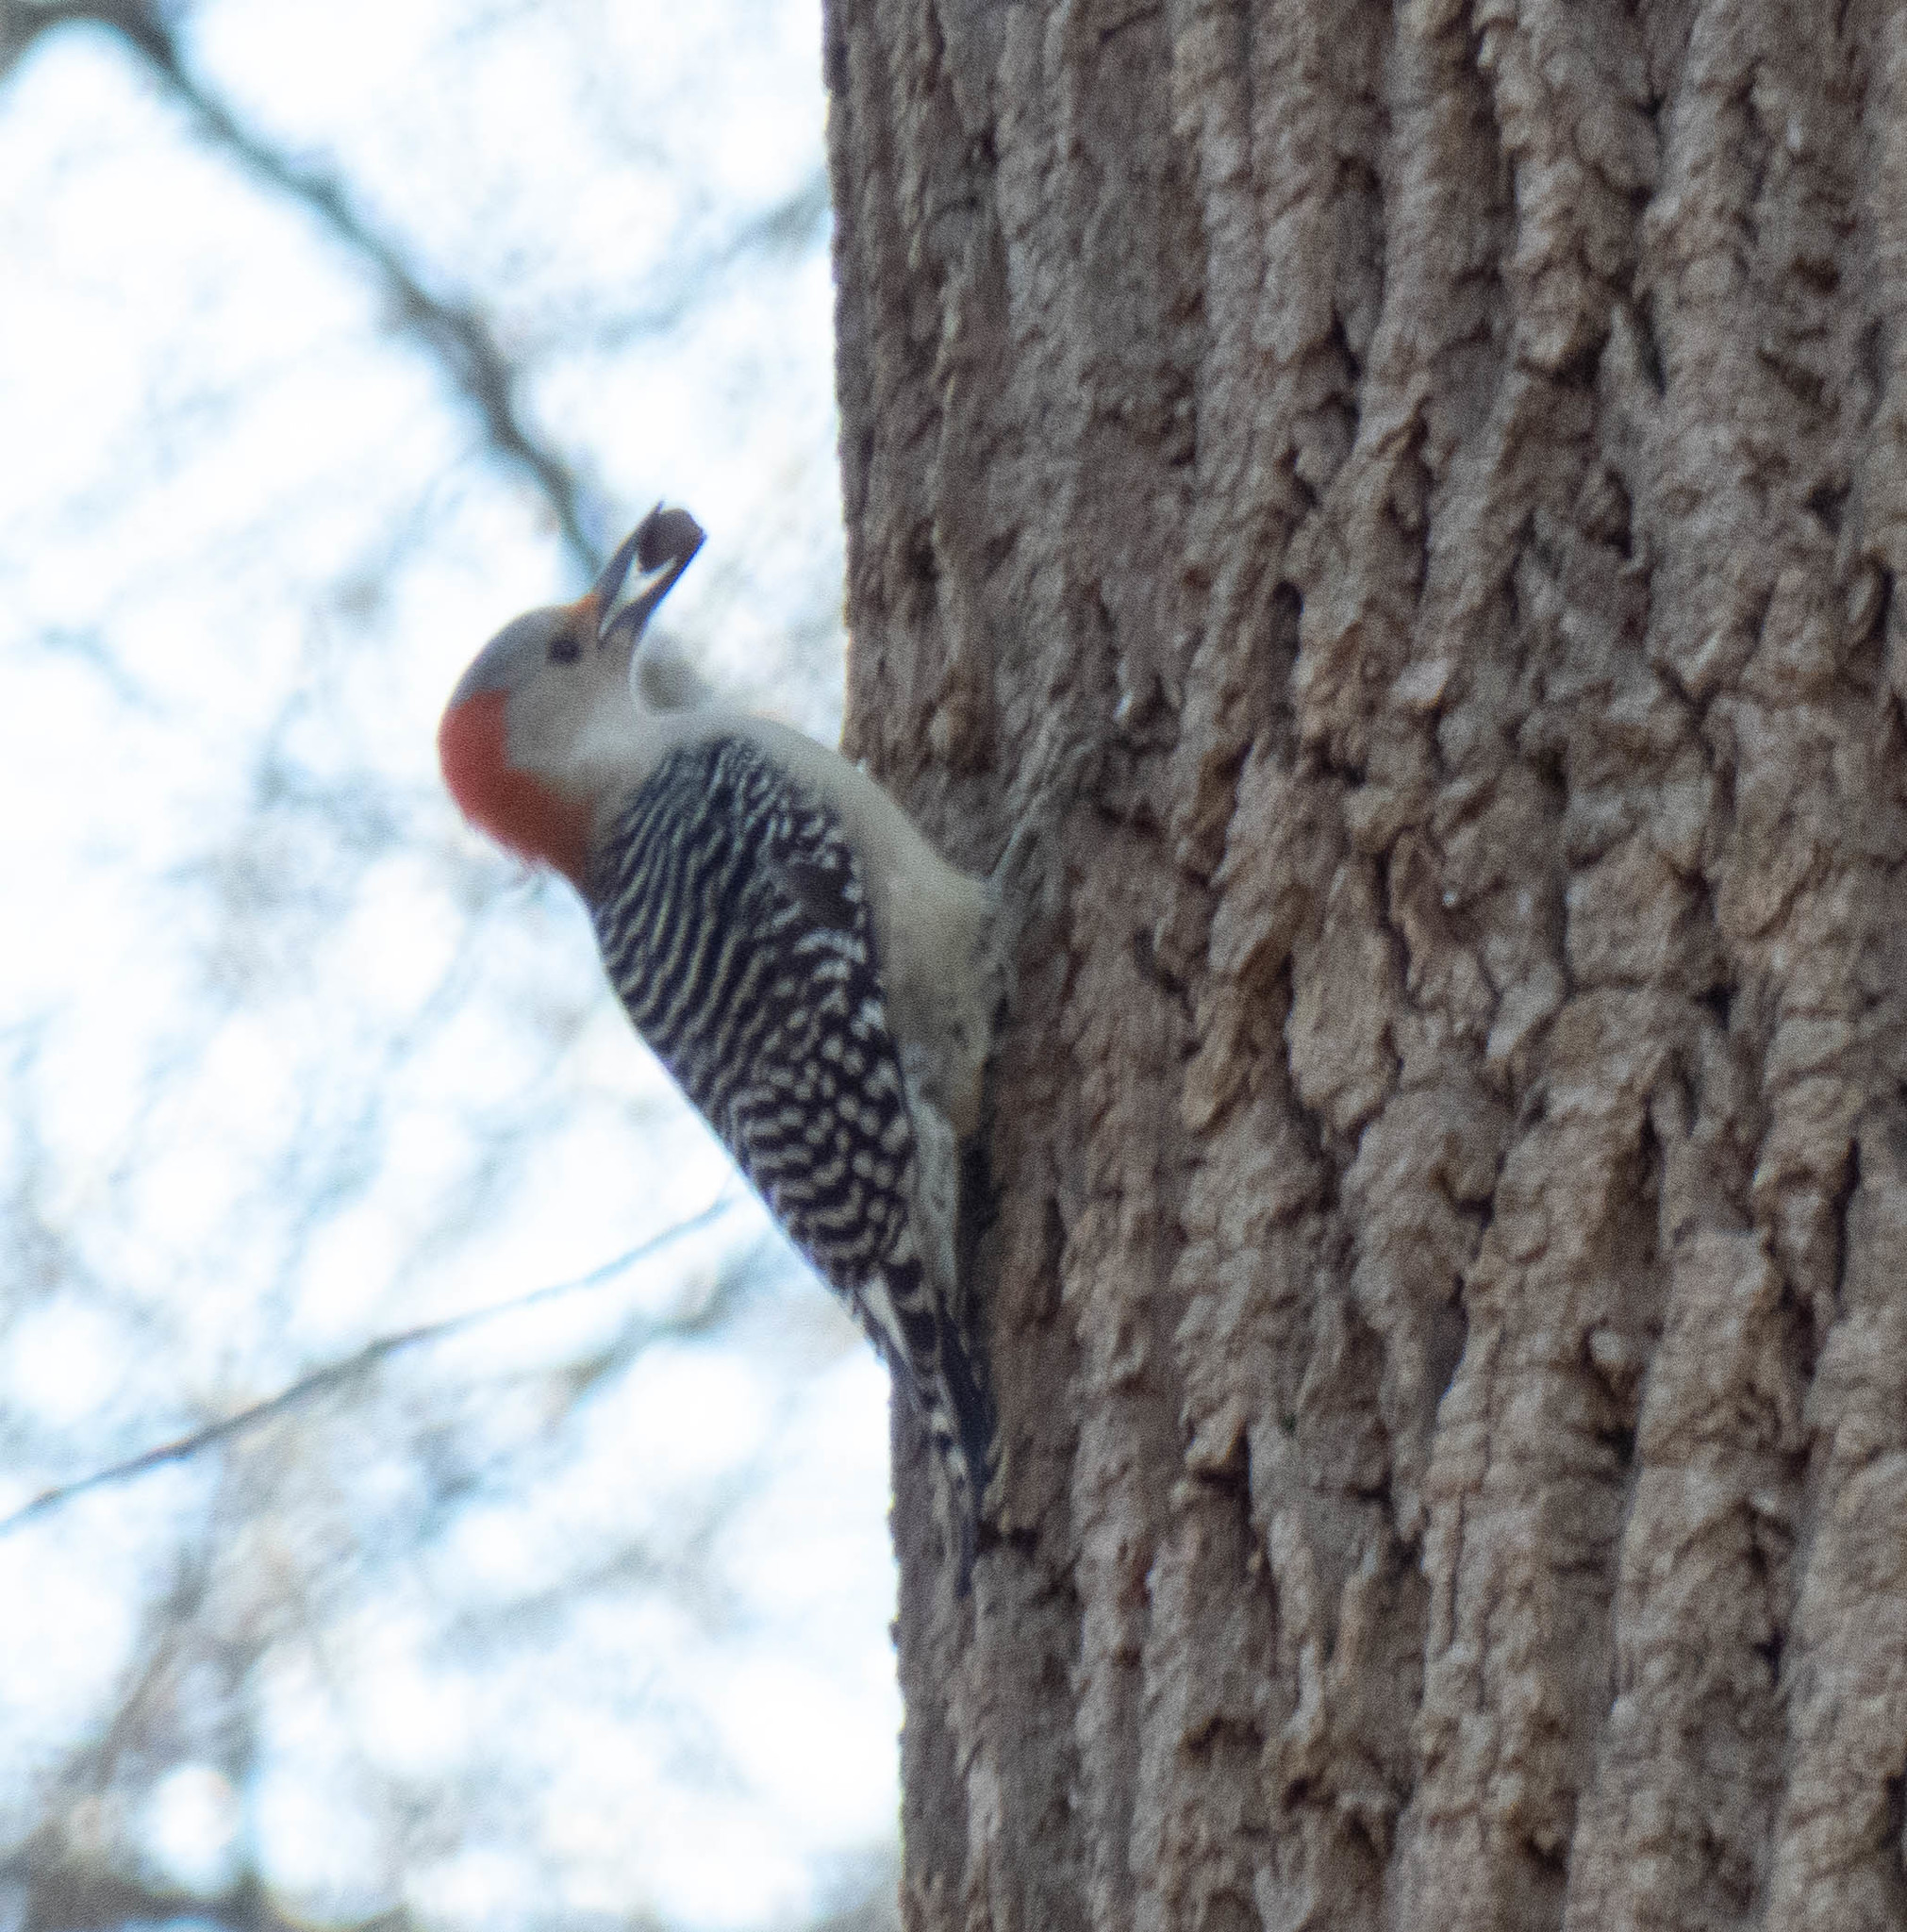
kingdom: Animalia
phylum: Chordata
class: Aves
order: Piciformes
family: Picidae
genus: Melanerpes
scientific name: Melanerpes carolinus
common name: Red-bellied woodpecker
